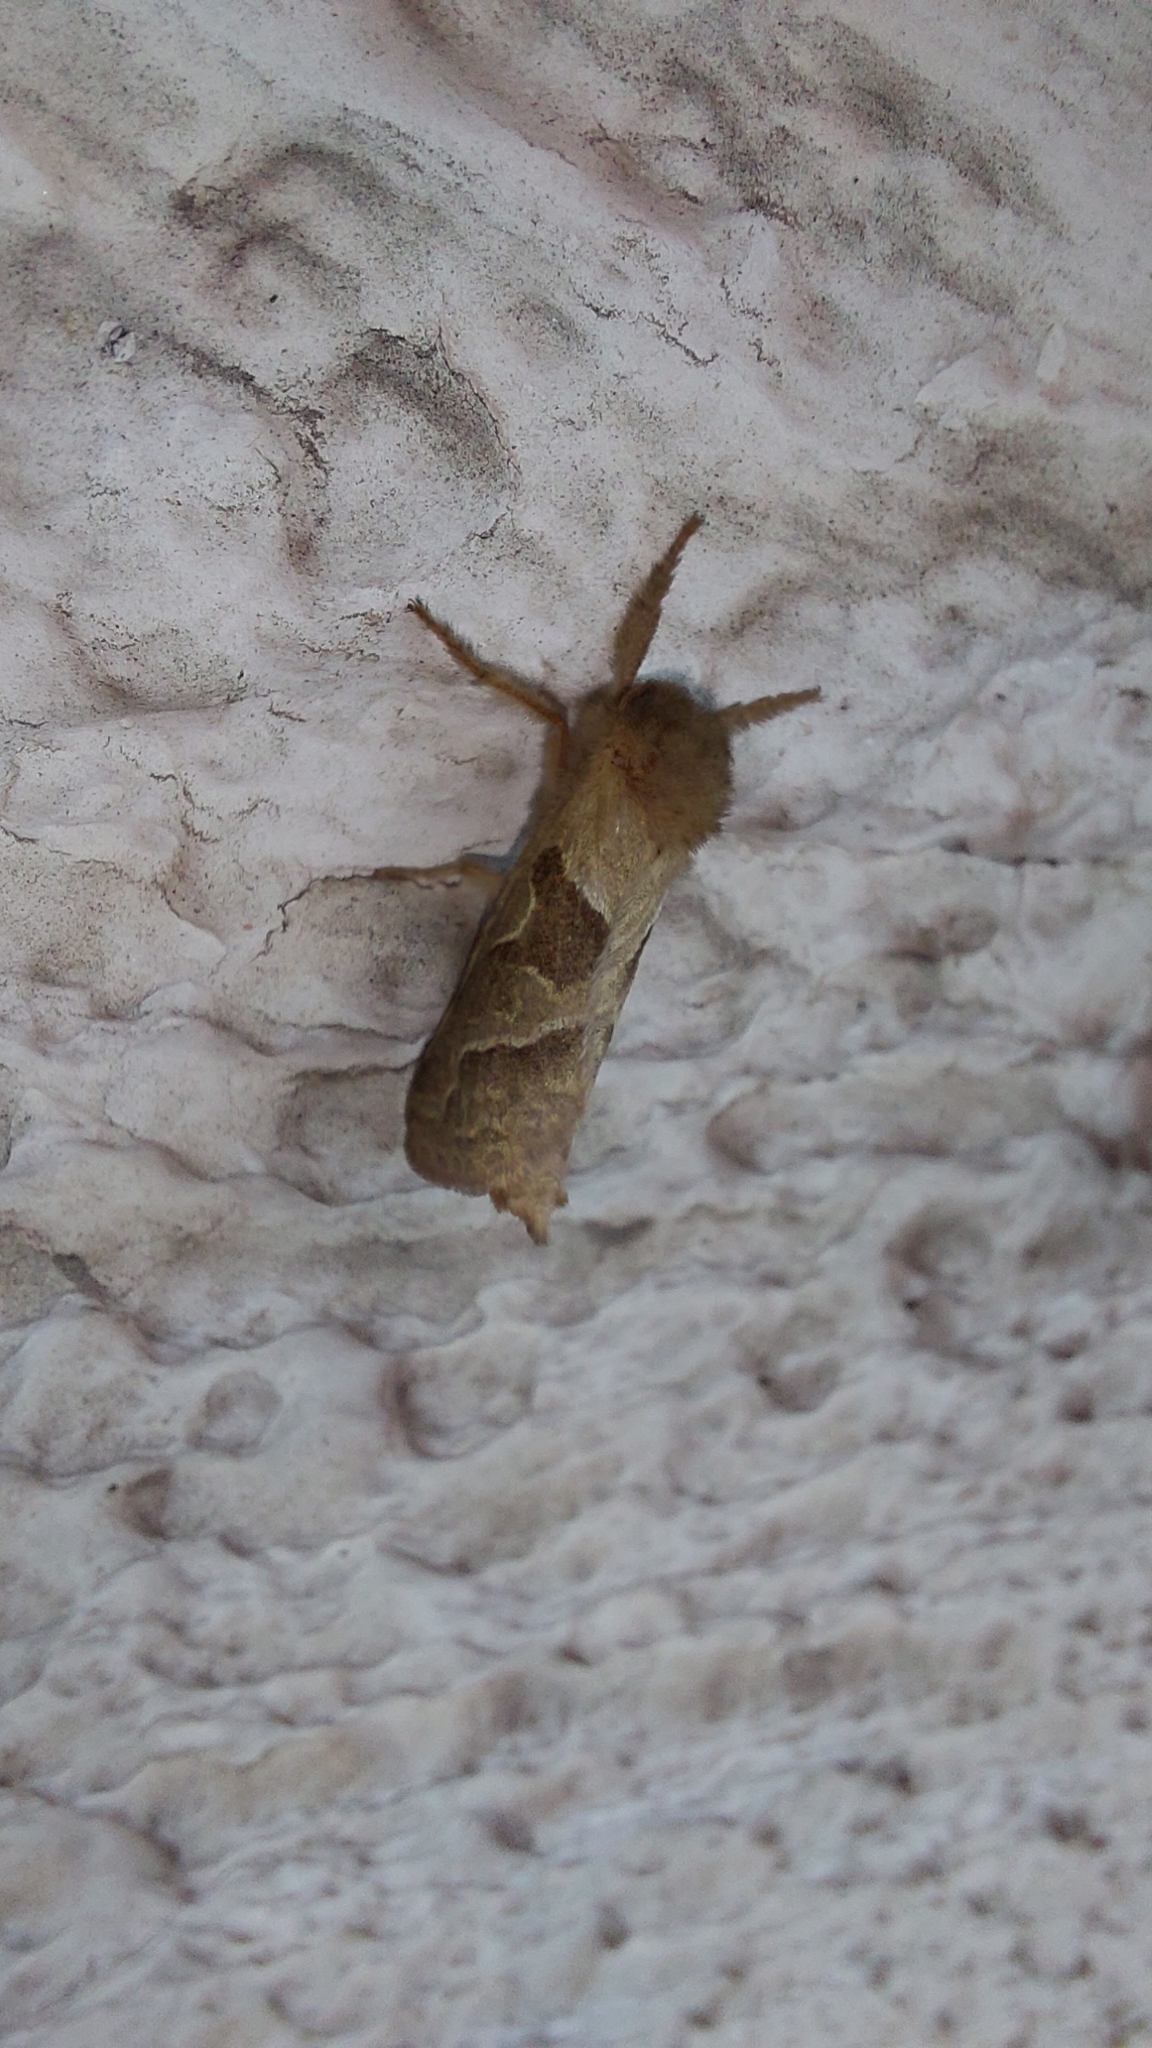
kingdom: Animalia
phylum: Arthropoda
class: Insecta
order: Lepidoptera
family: Hepialidae
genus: Triodia
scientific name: Triodia sylvina
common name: Orange swift
